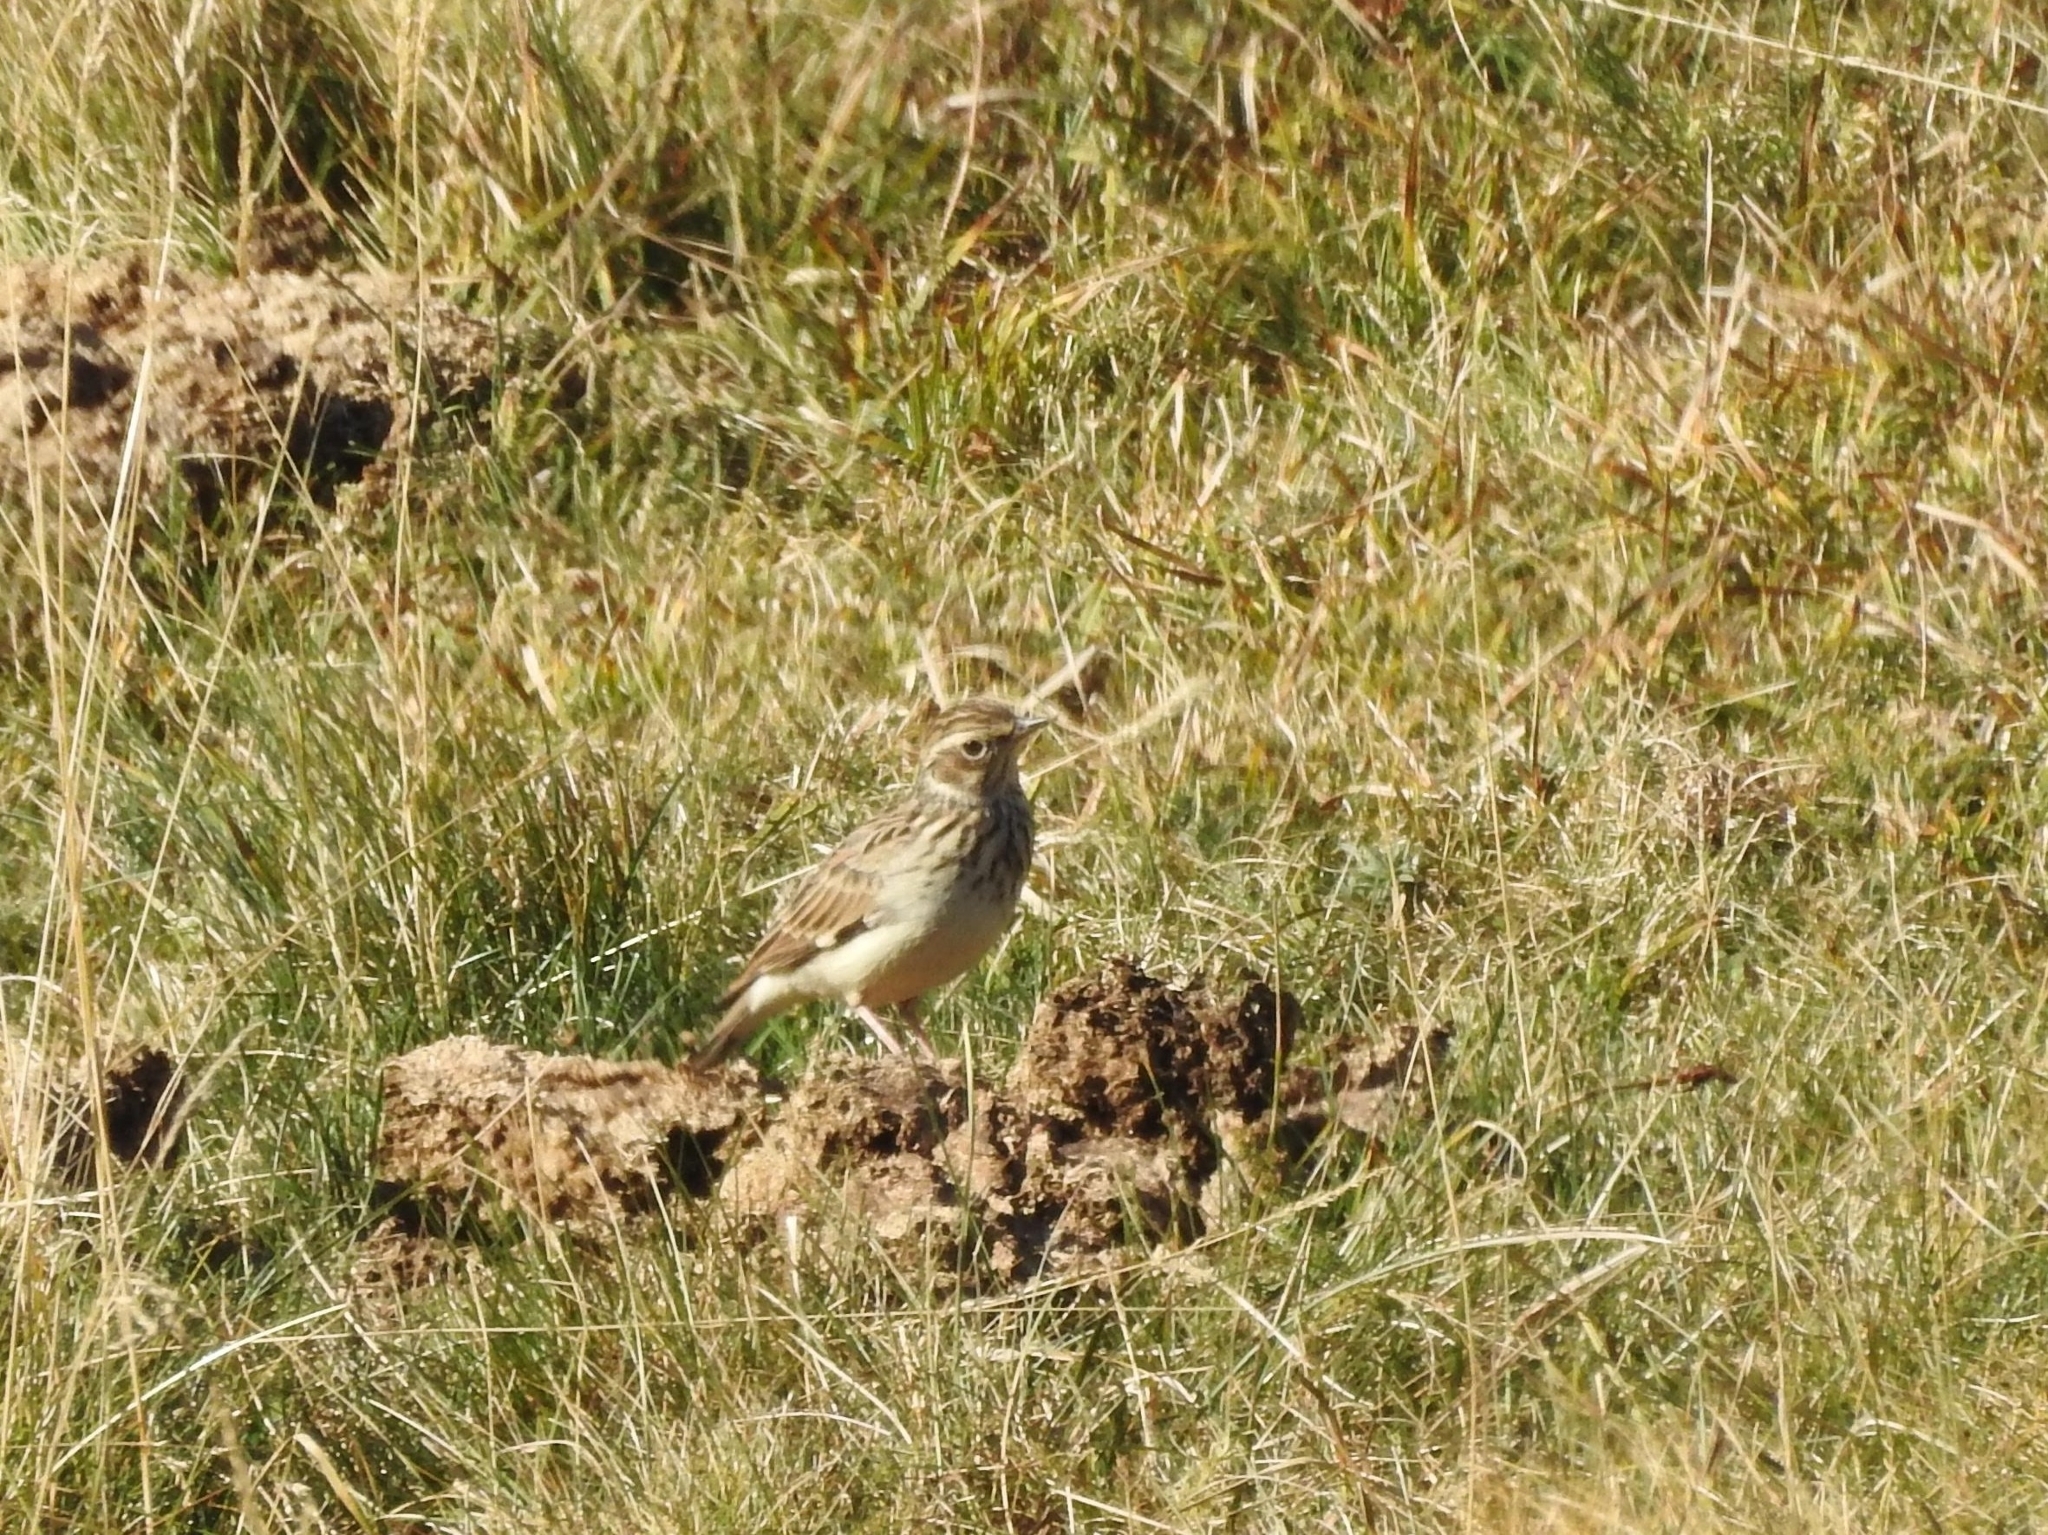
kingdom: Animalia
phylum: Chordata
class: Aves
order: Passeriformes
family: Alaudidae
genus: Lullula
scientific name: Lullula arborea
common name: Woodlark
